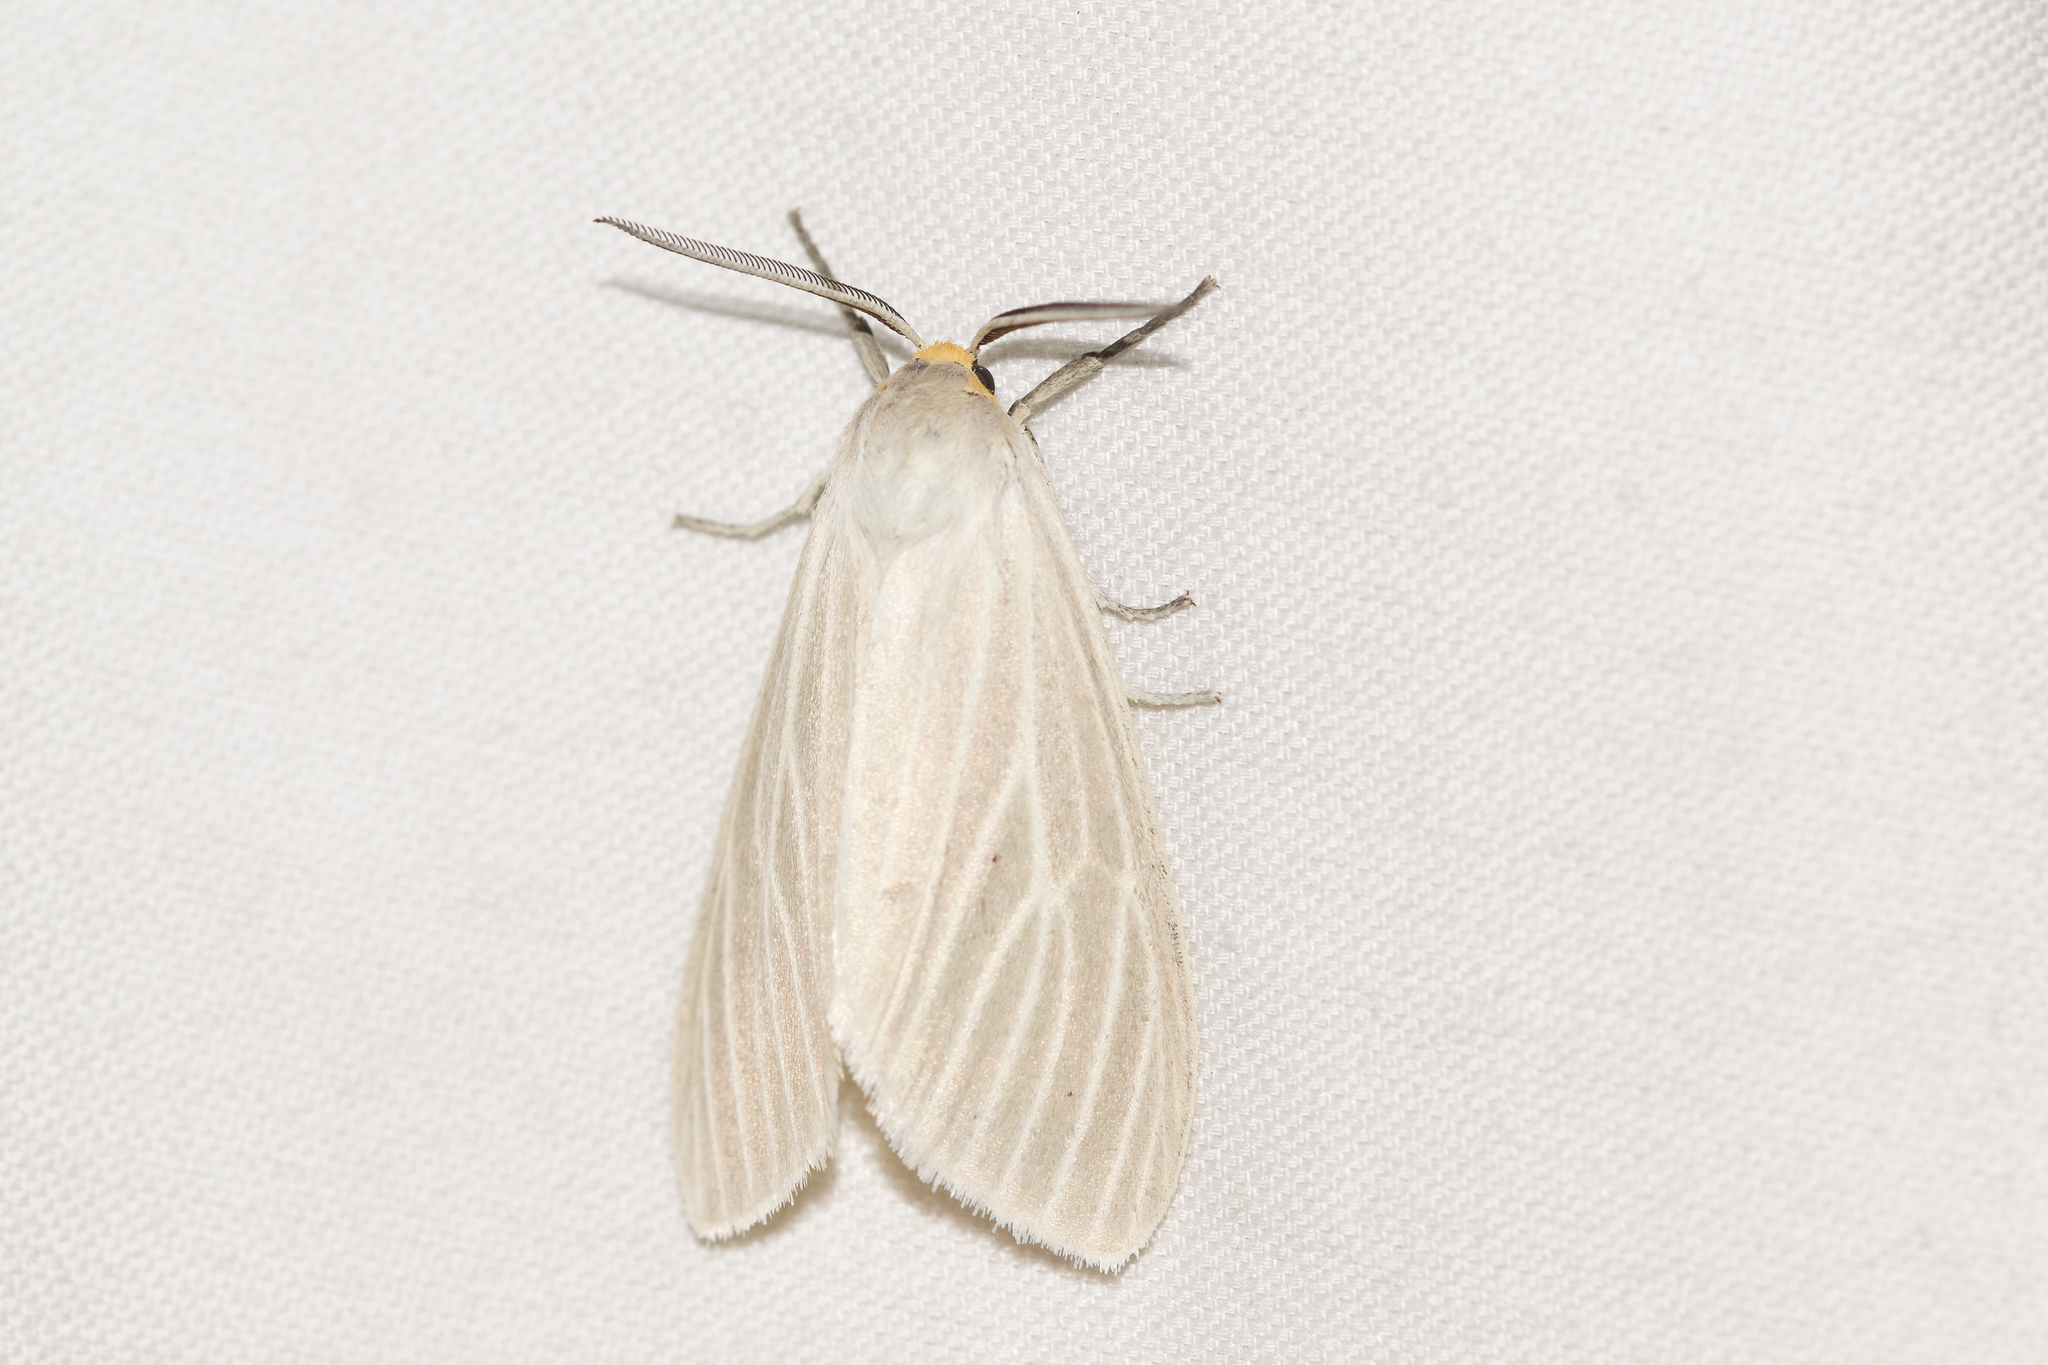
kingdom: Animalia
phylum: Arthropoda
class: Insecta
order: Lepidoptera
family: Erebidae
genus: Cycnia
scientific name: Cycnia oregonensis
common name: Oregon cycnia moth
